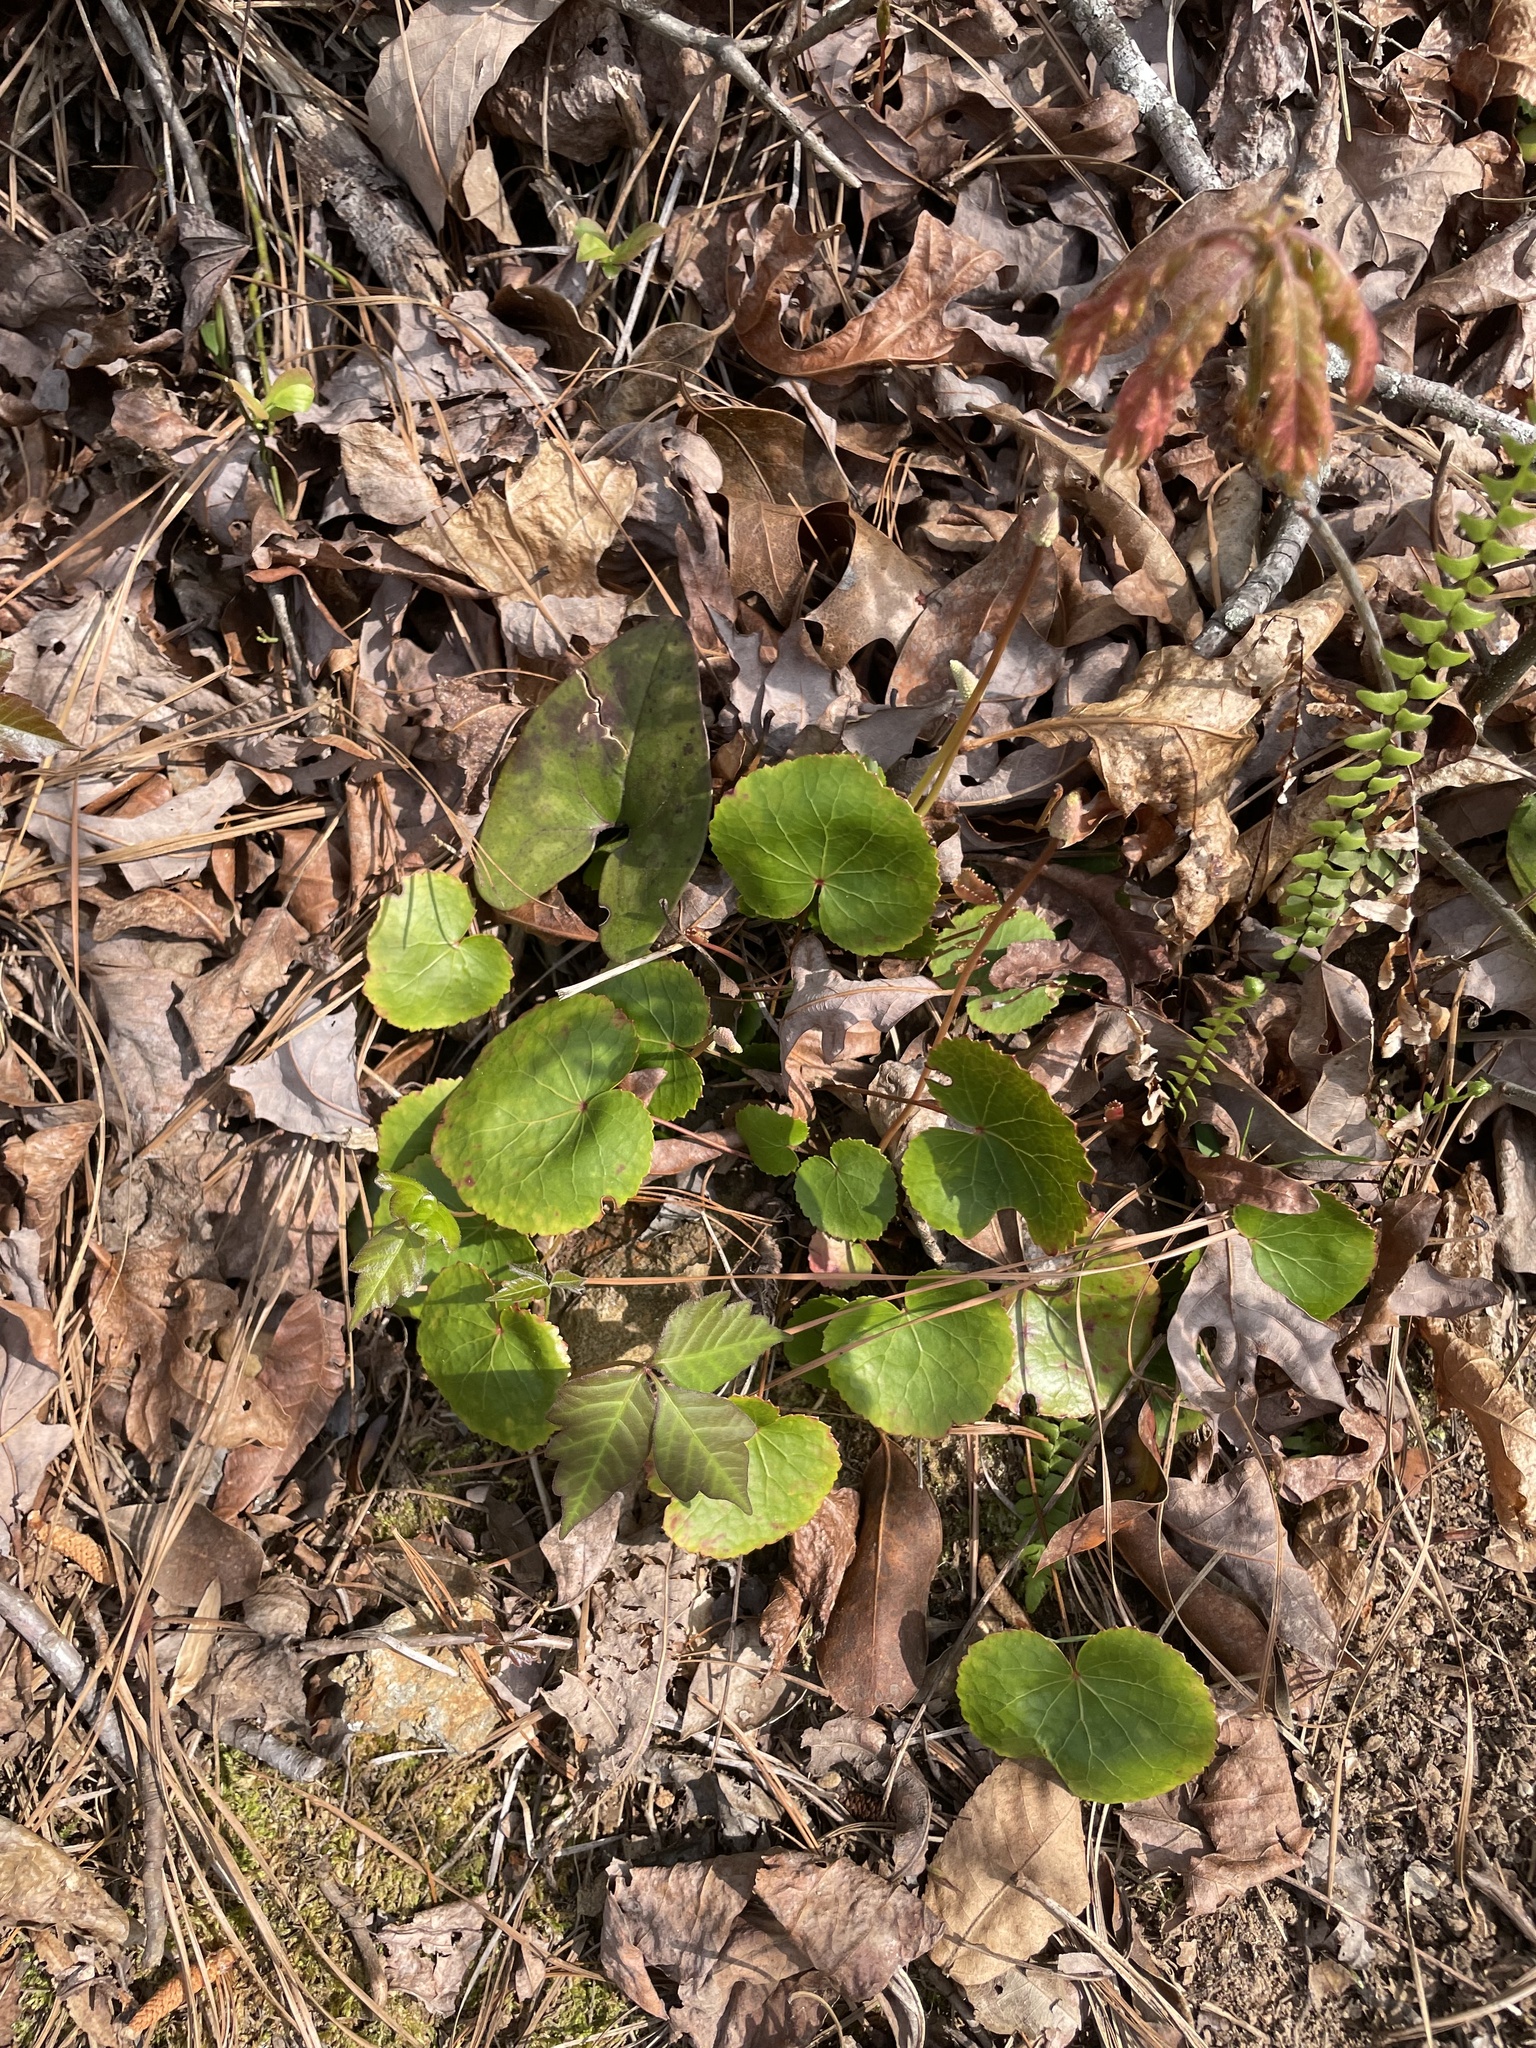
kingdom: Plantae
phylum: Tracheophyta
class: Magnoliopsida
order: Ericales
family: Diapensiaceae
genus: Galax
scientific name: Galax urceolata
